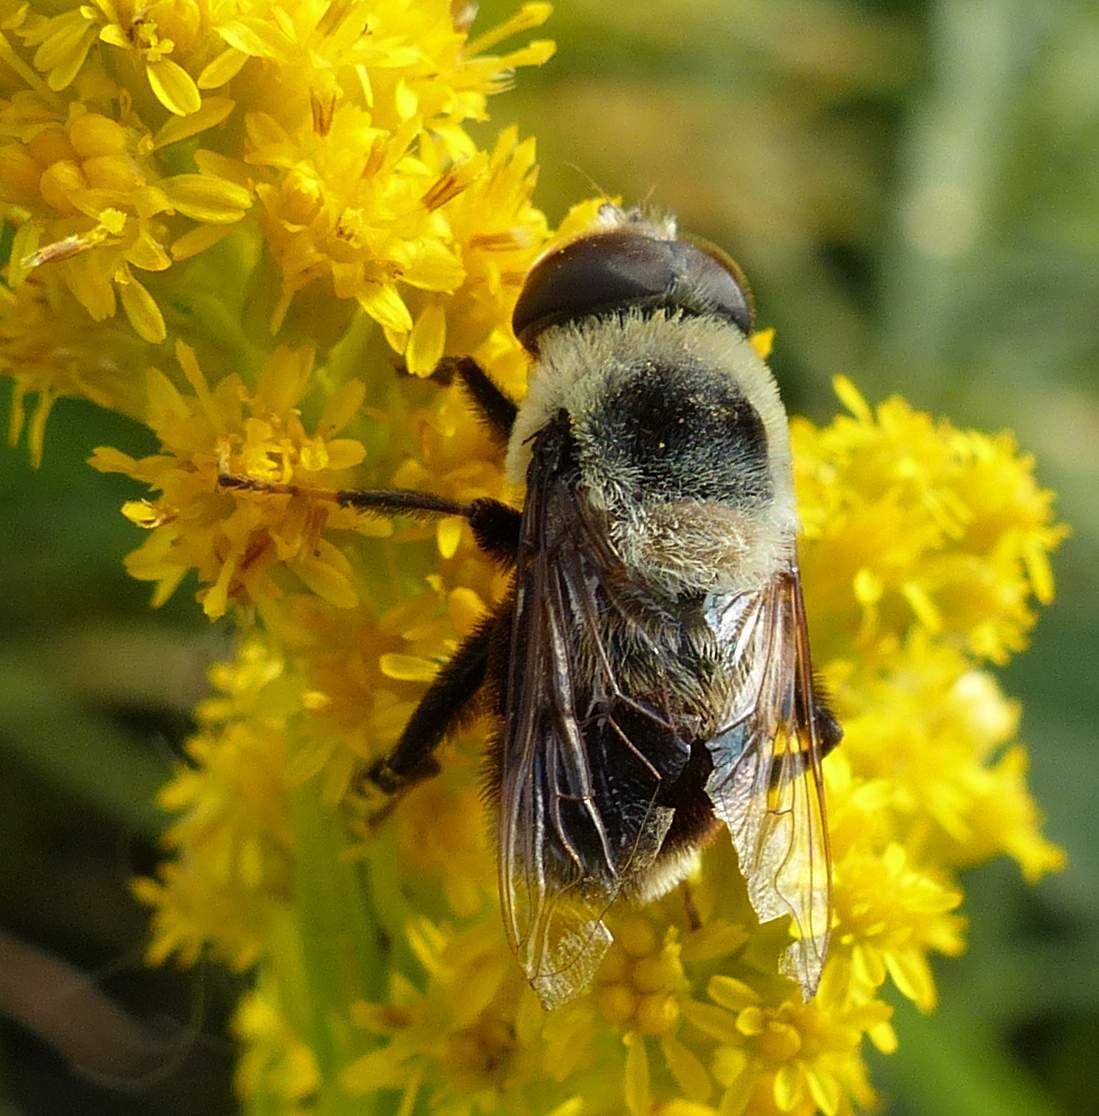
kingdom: Animalia
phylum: Arthropoda
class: Insecta
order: Diptera
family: Syrphidae
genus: Eristalis
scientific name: Eristalis flavipes
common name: Orange-legged drone fly
